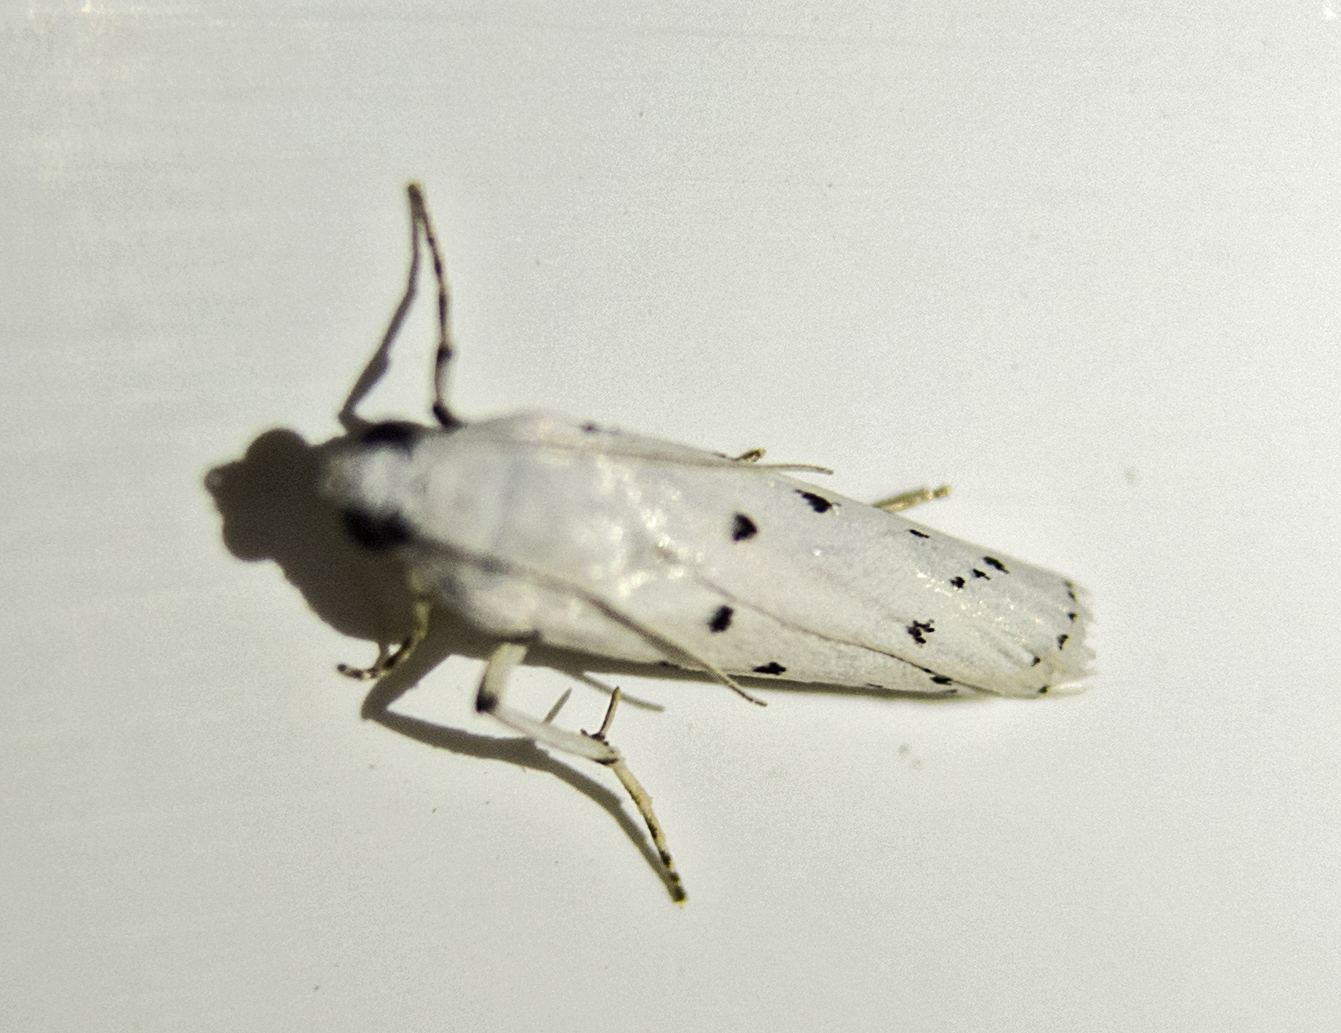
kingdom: Animalia
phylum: Arthropoda
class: Insecta
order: Lepidoptera
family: Pyralidae
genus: Myelois
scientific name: Myelois circumvoluta
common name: Thistle ermine
